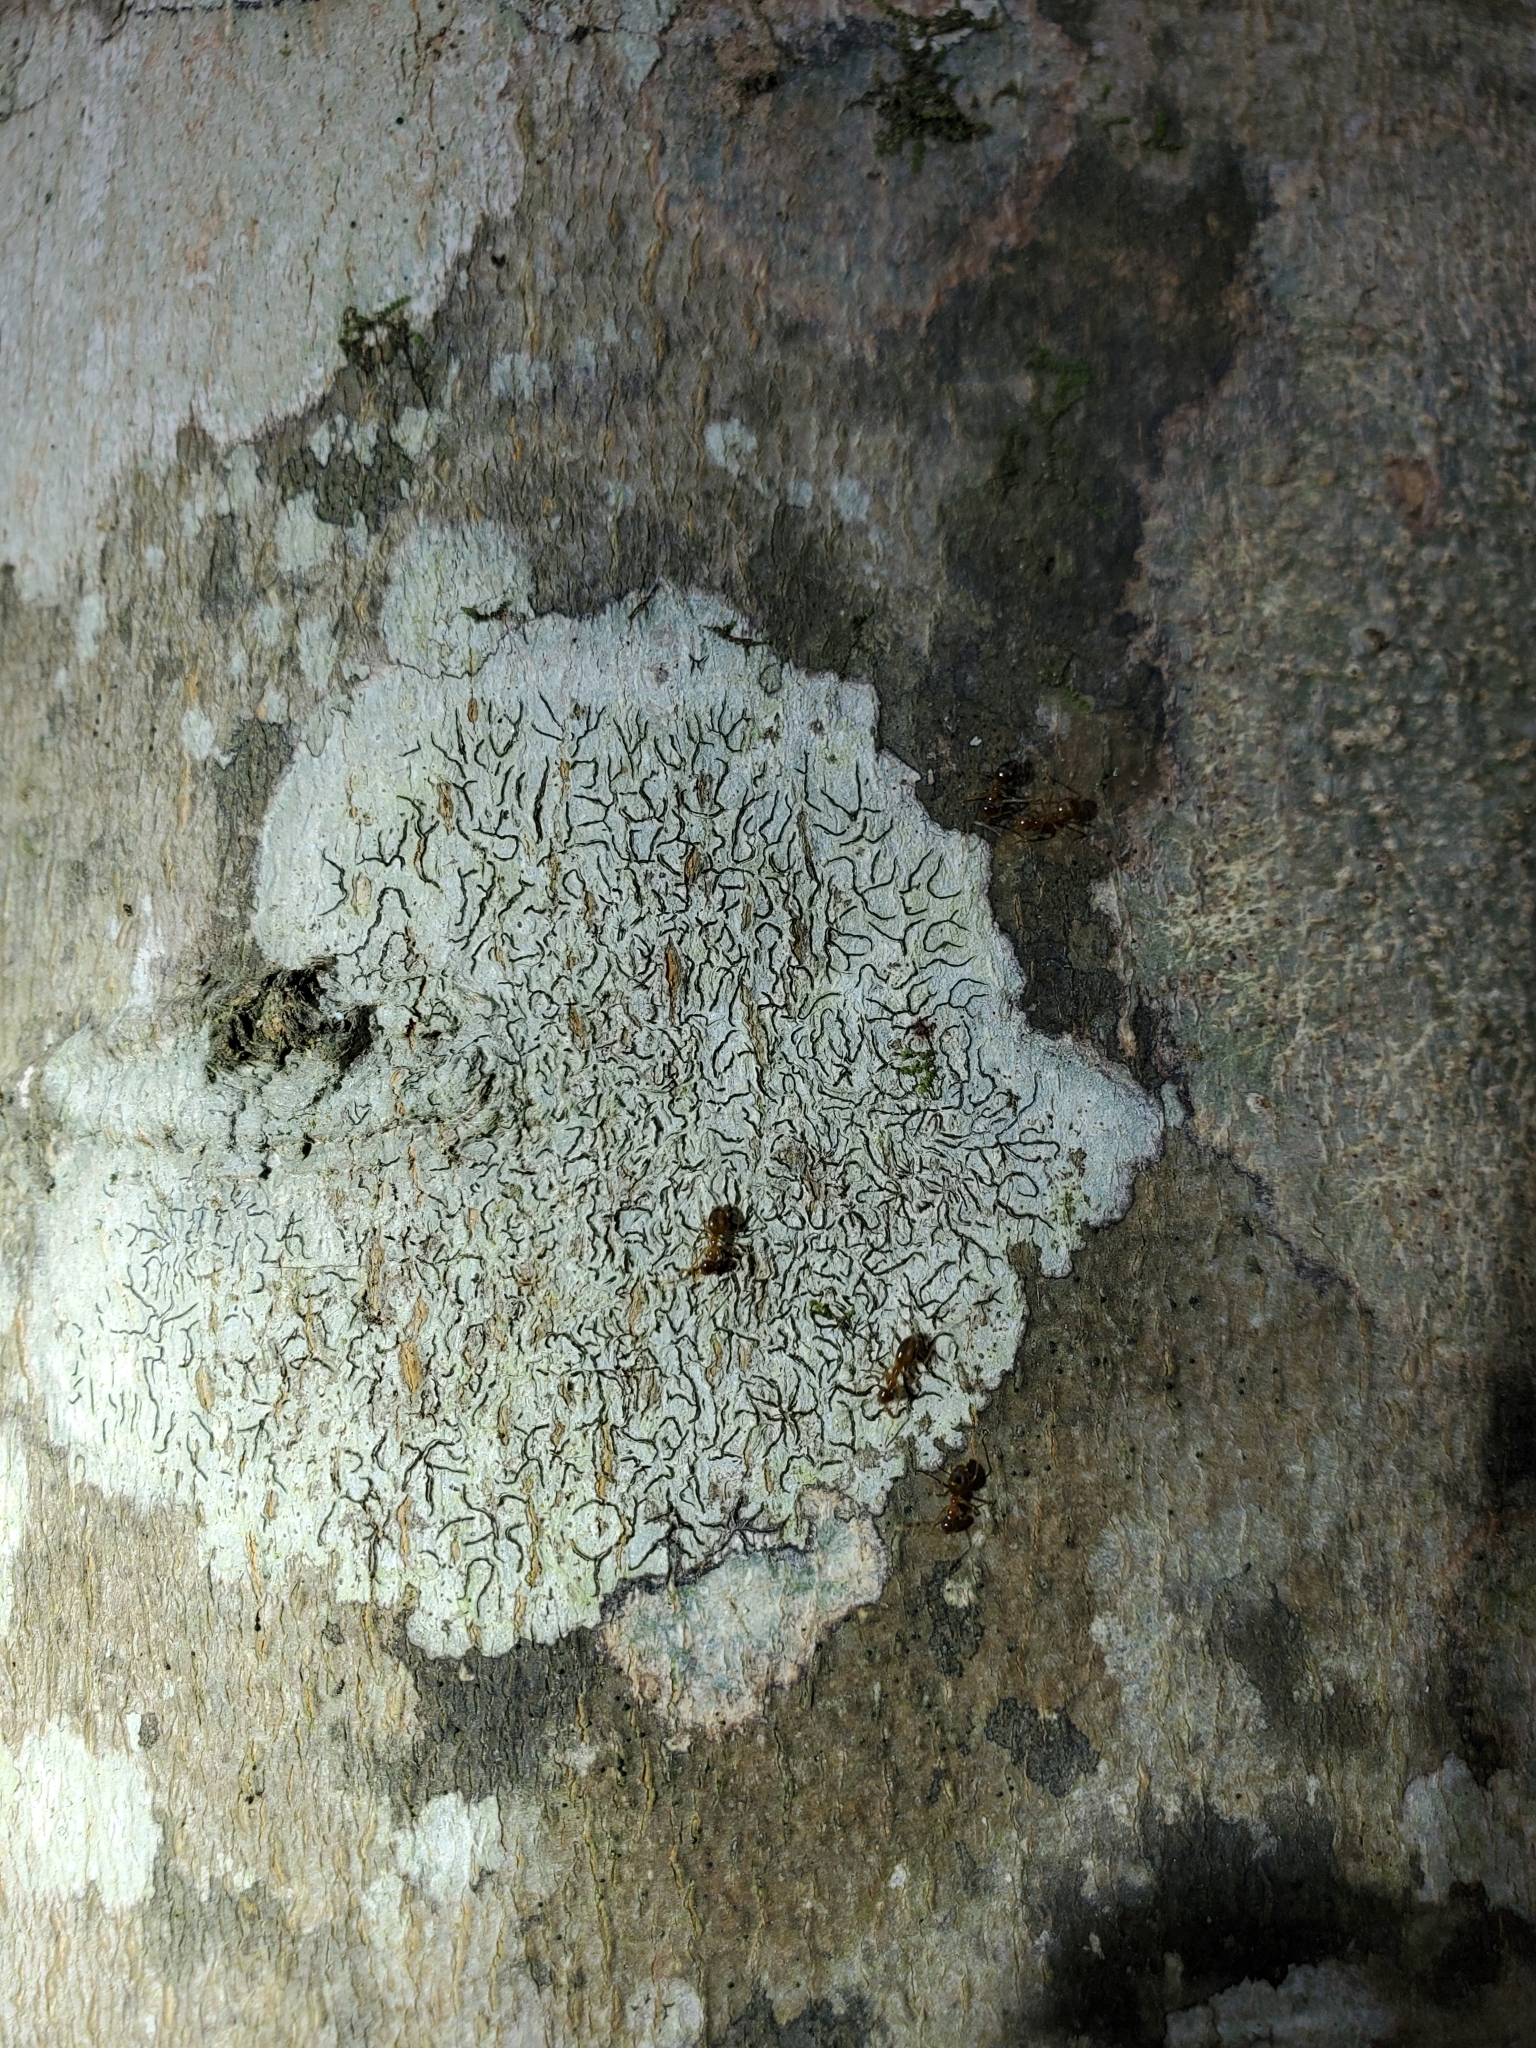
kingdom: Fungi
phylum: Ascomycota
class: Lecanoromycetes
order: Ostropales
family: Graphidaceae
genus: Graphis
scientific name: Graphis
